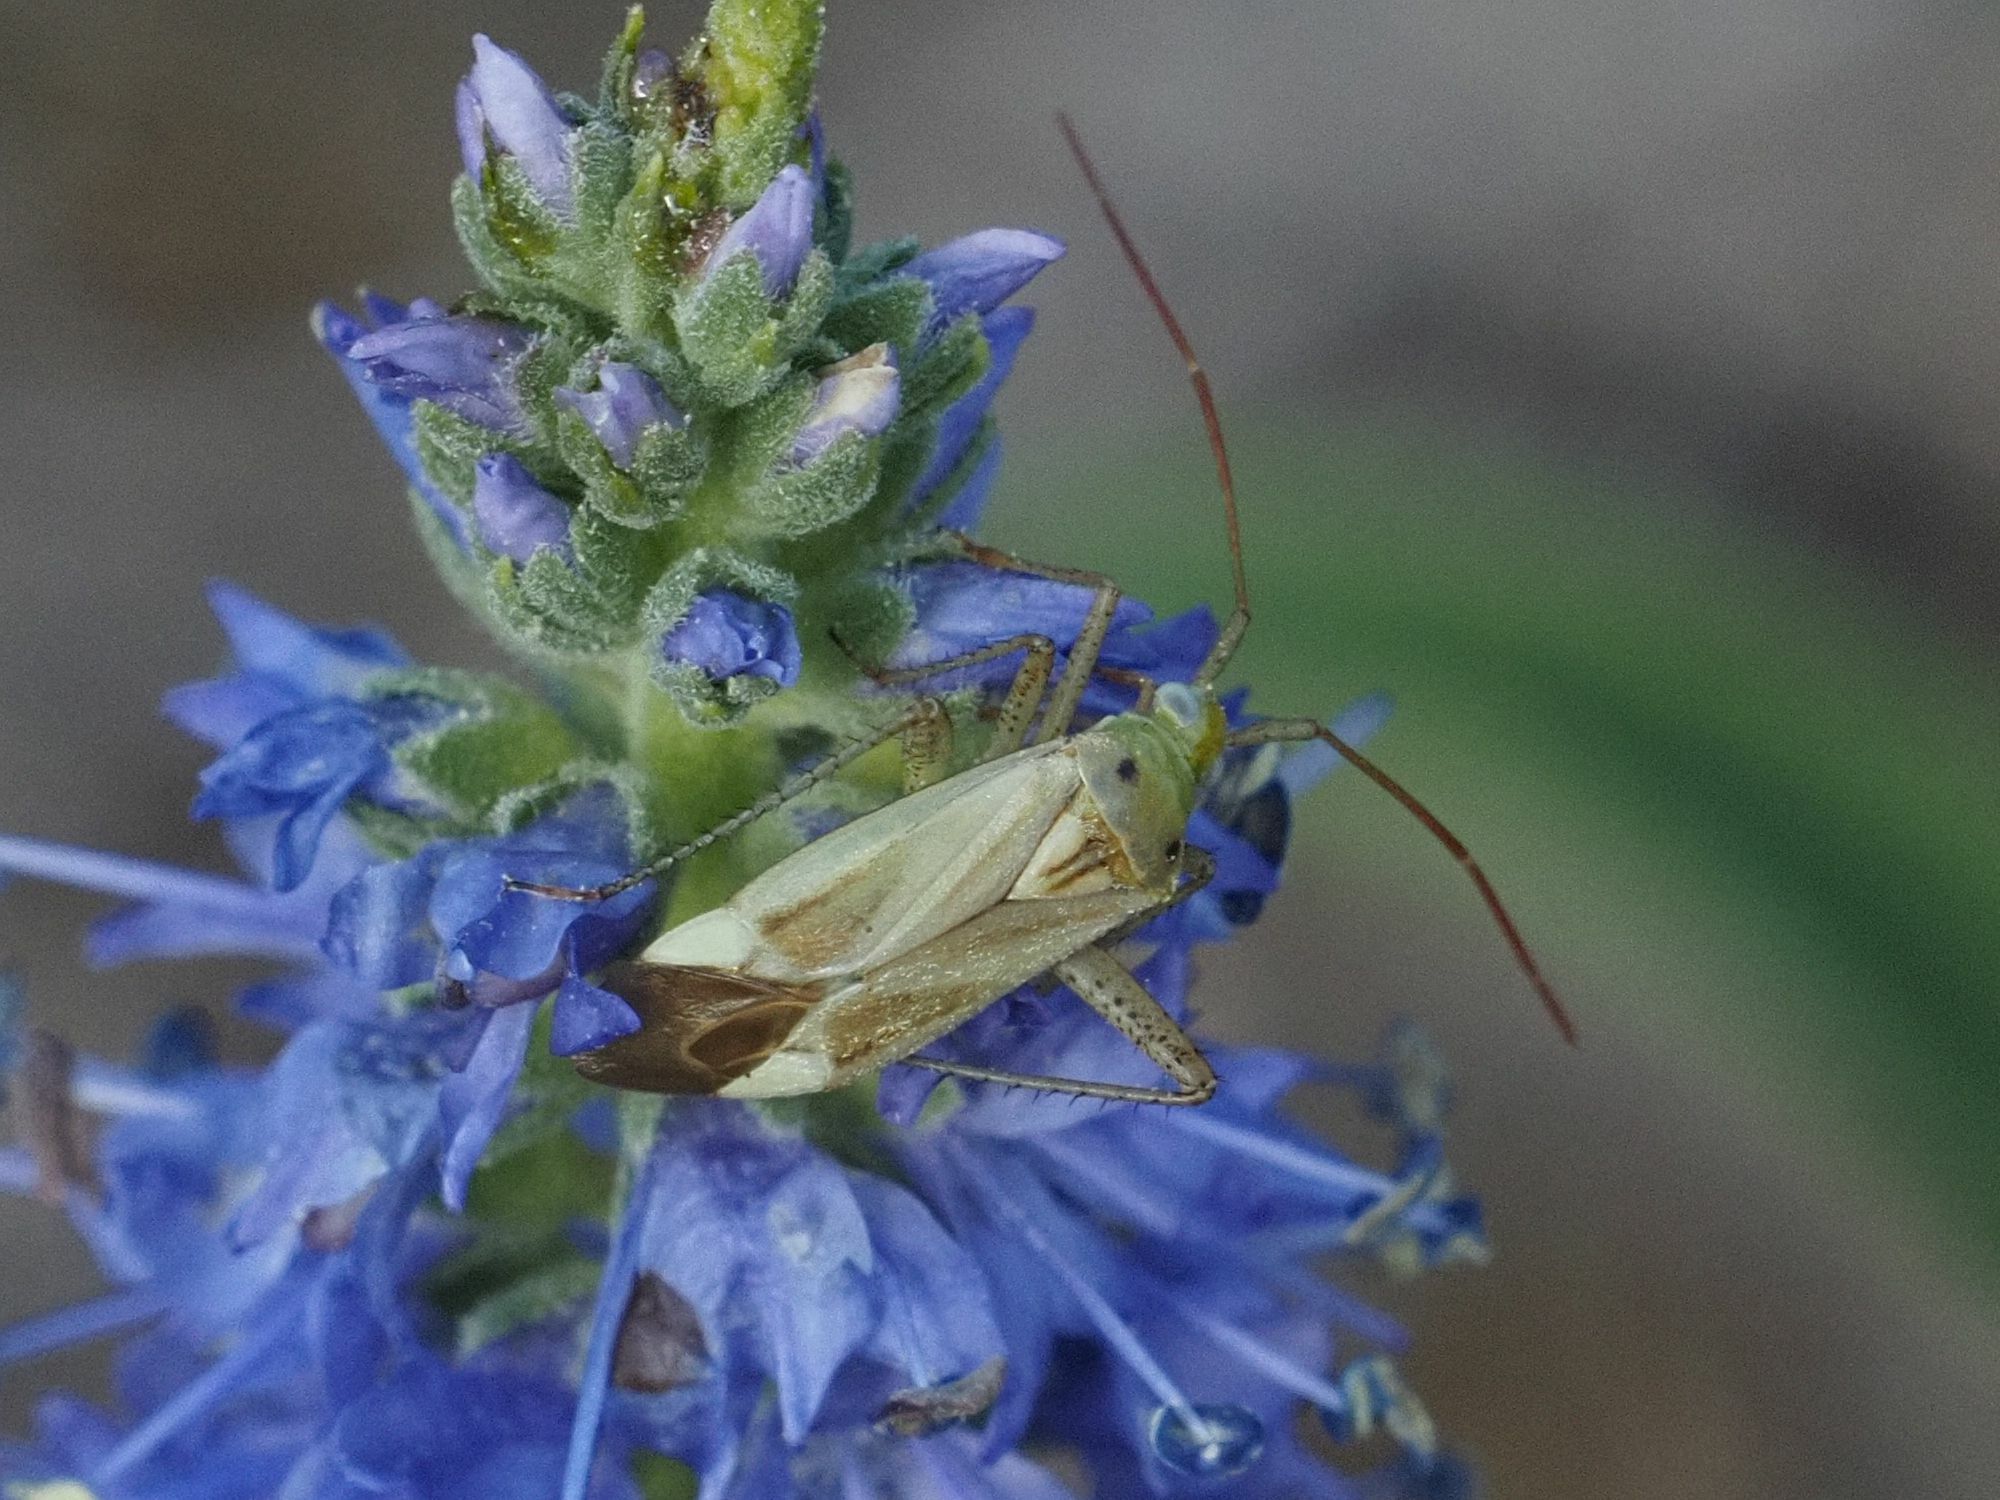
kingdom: Animalia
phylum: Arthropoda
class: Insecta
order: Hemiptera
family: Miridae
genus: Adelphocoris
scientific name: Adelphocoris lineolatus
